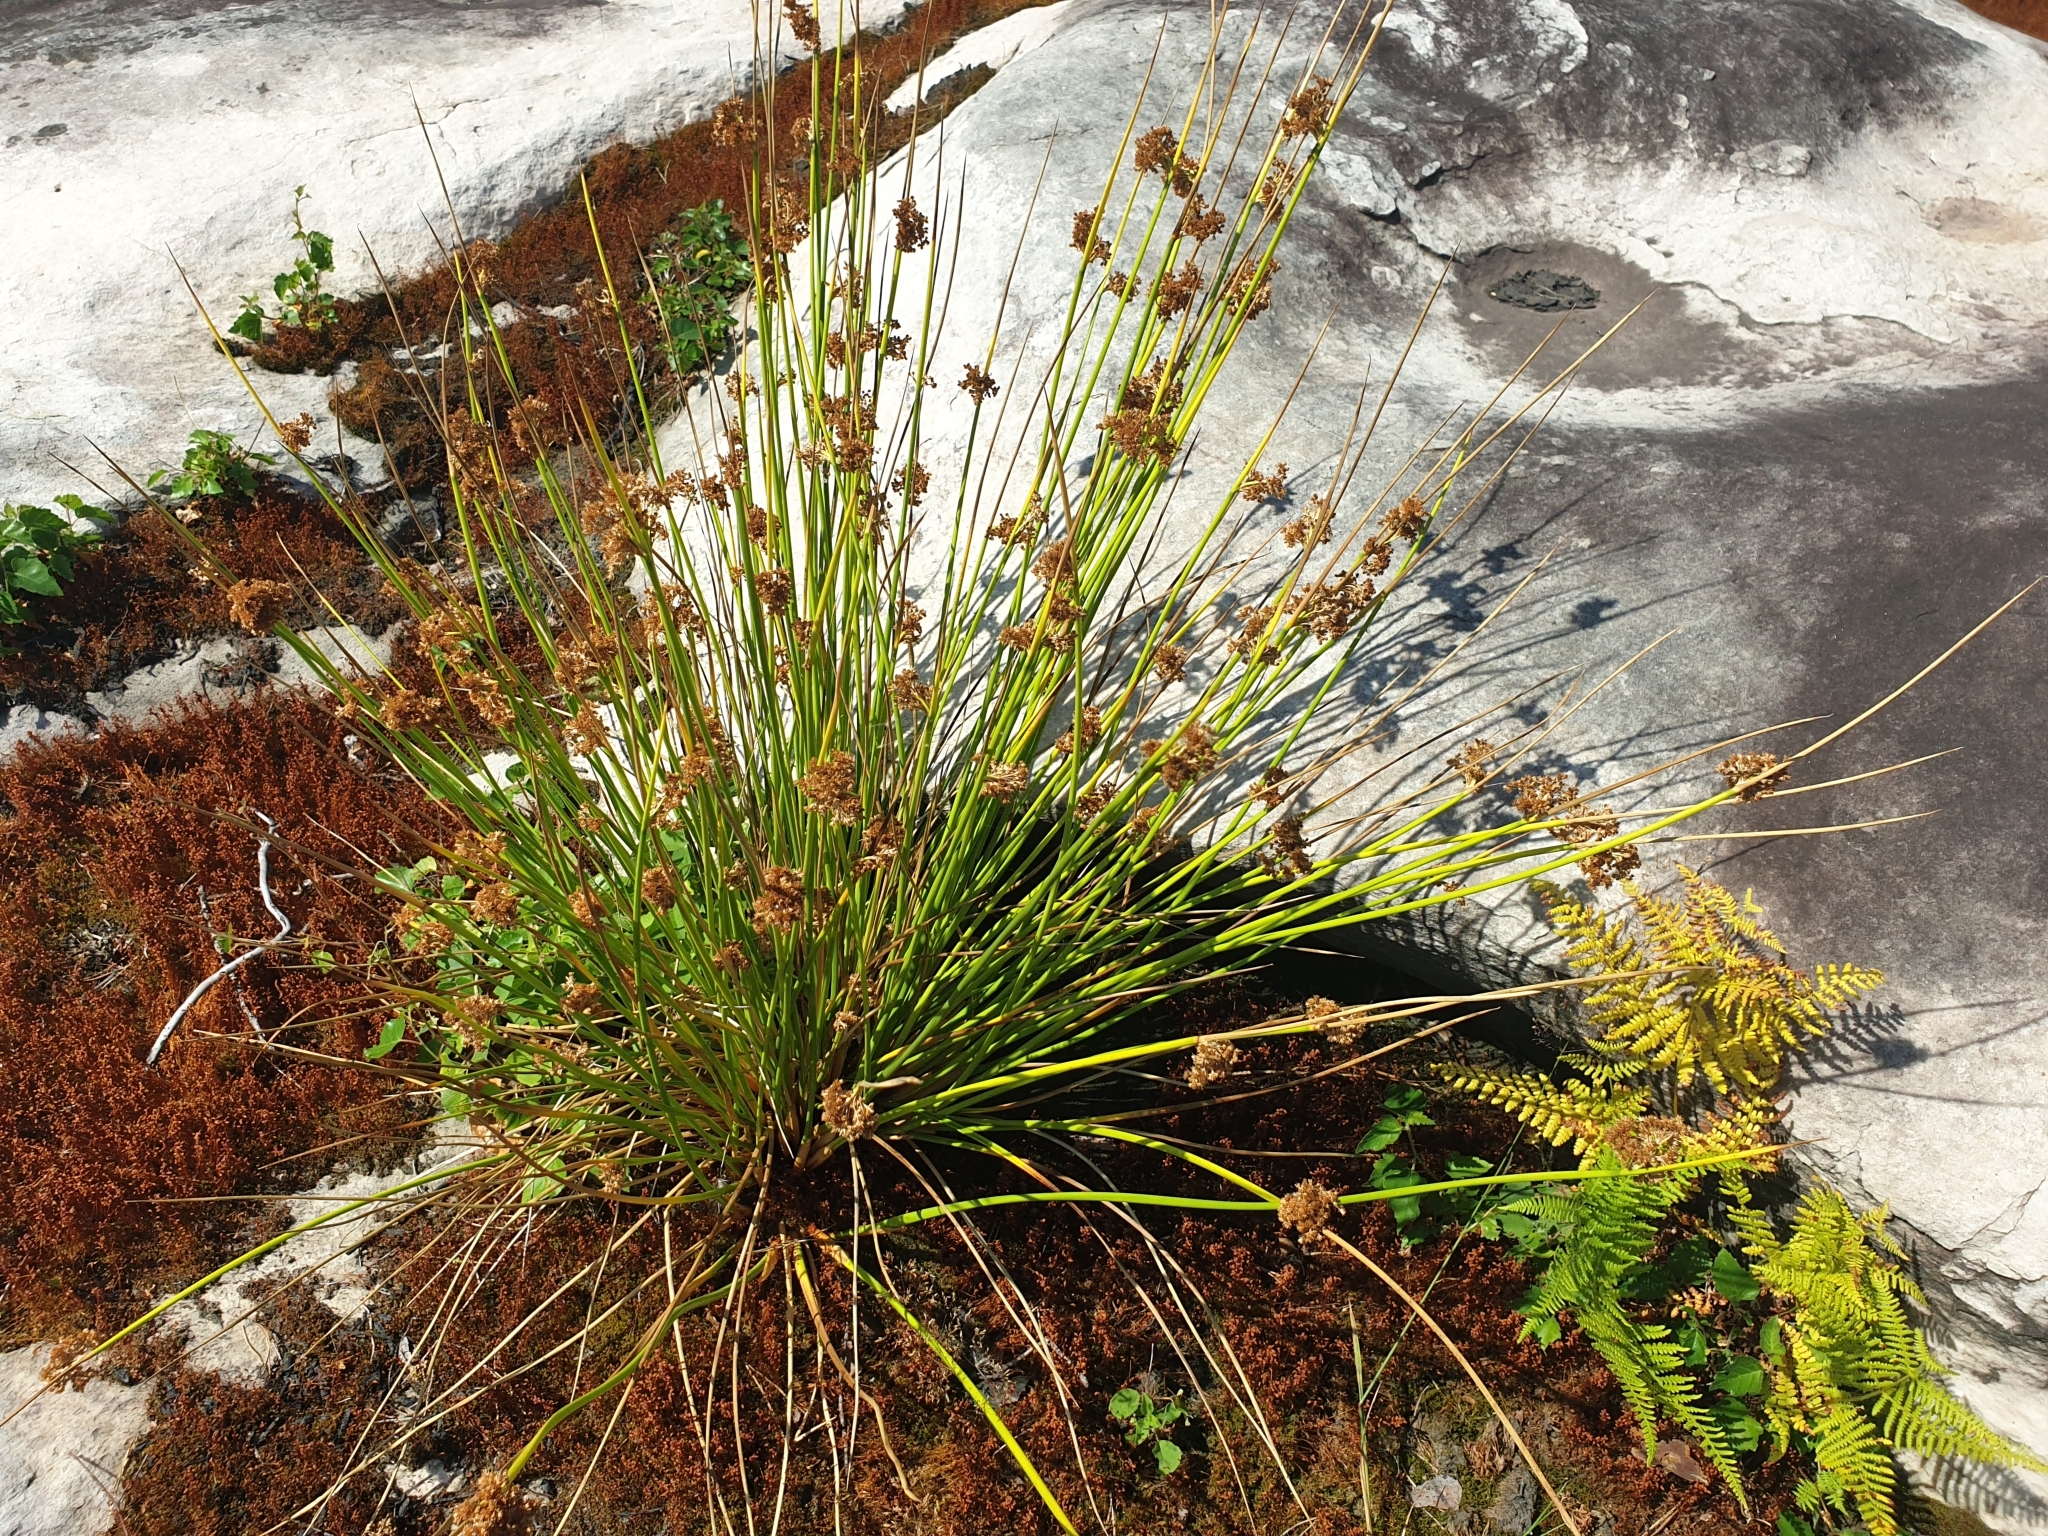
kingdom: Plantae
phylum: Tracheophyta
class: Liliopsida
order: Poales
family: Juncaceae
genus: Juncus
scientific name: Juncus effusus
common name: Soft rush
